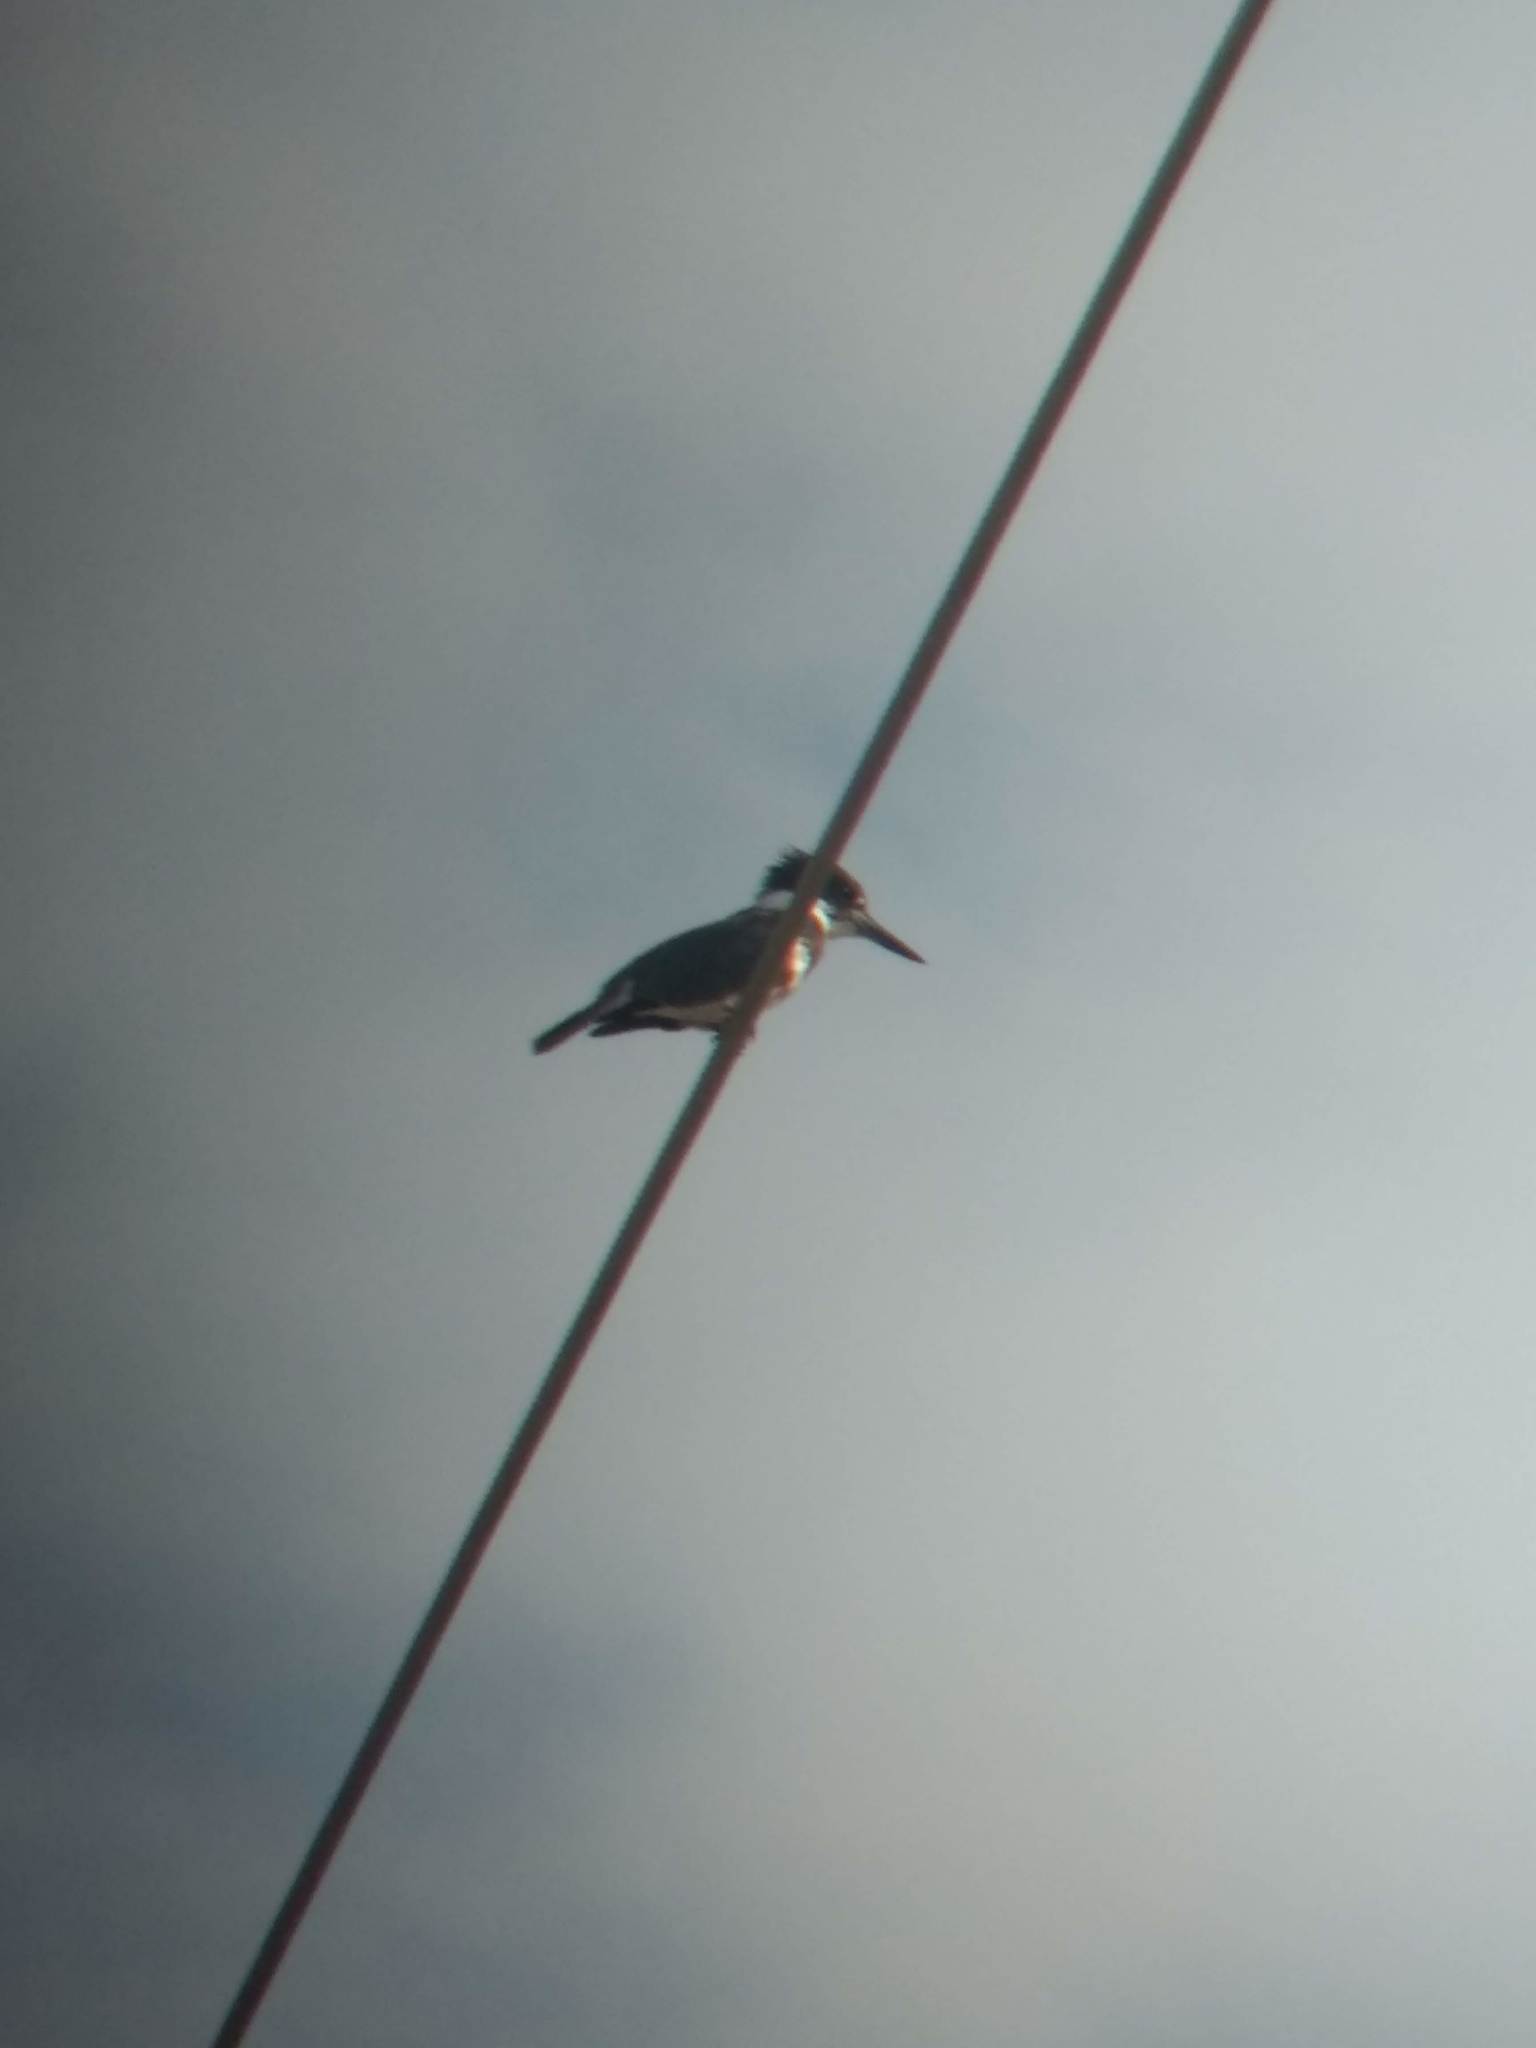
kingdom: Animalia
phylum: Chordata
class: Aves
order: Coraciiformes
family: Alcedinidae
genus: Megaceryle
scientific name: Megaceryle alcyon
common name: Belted kingfisher
